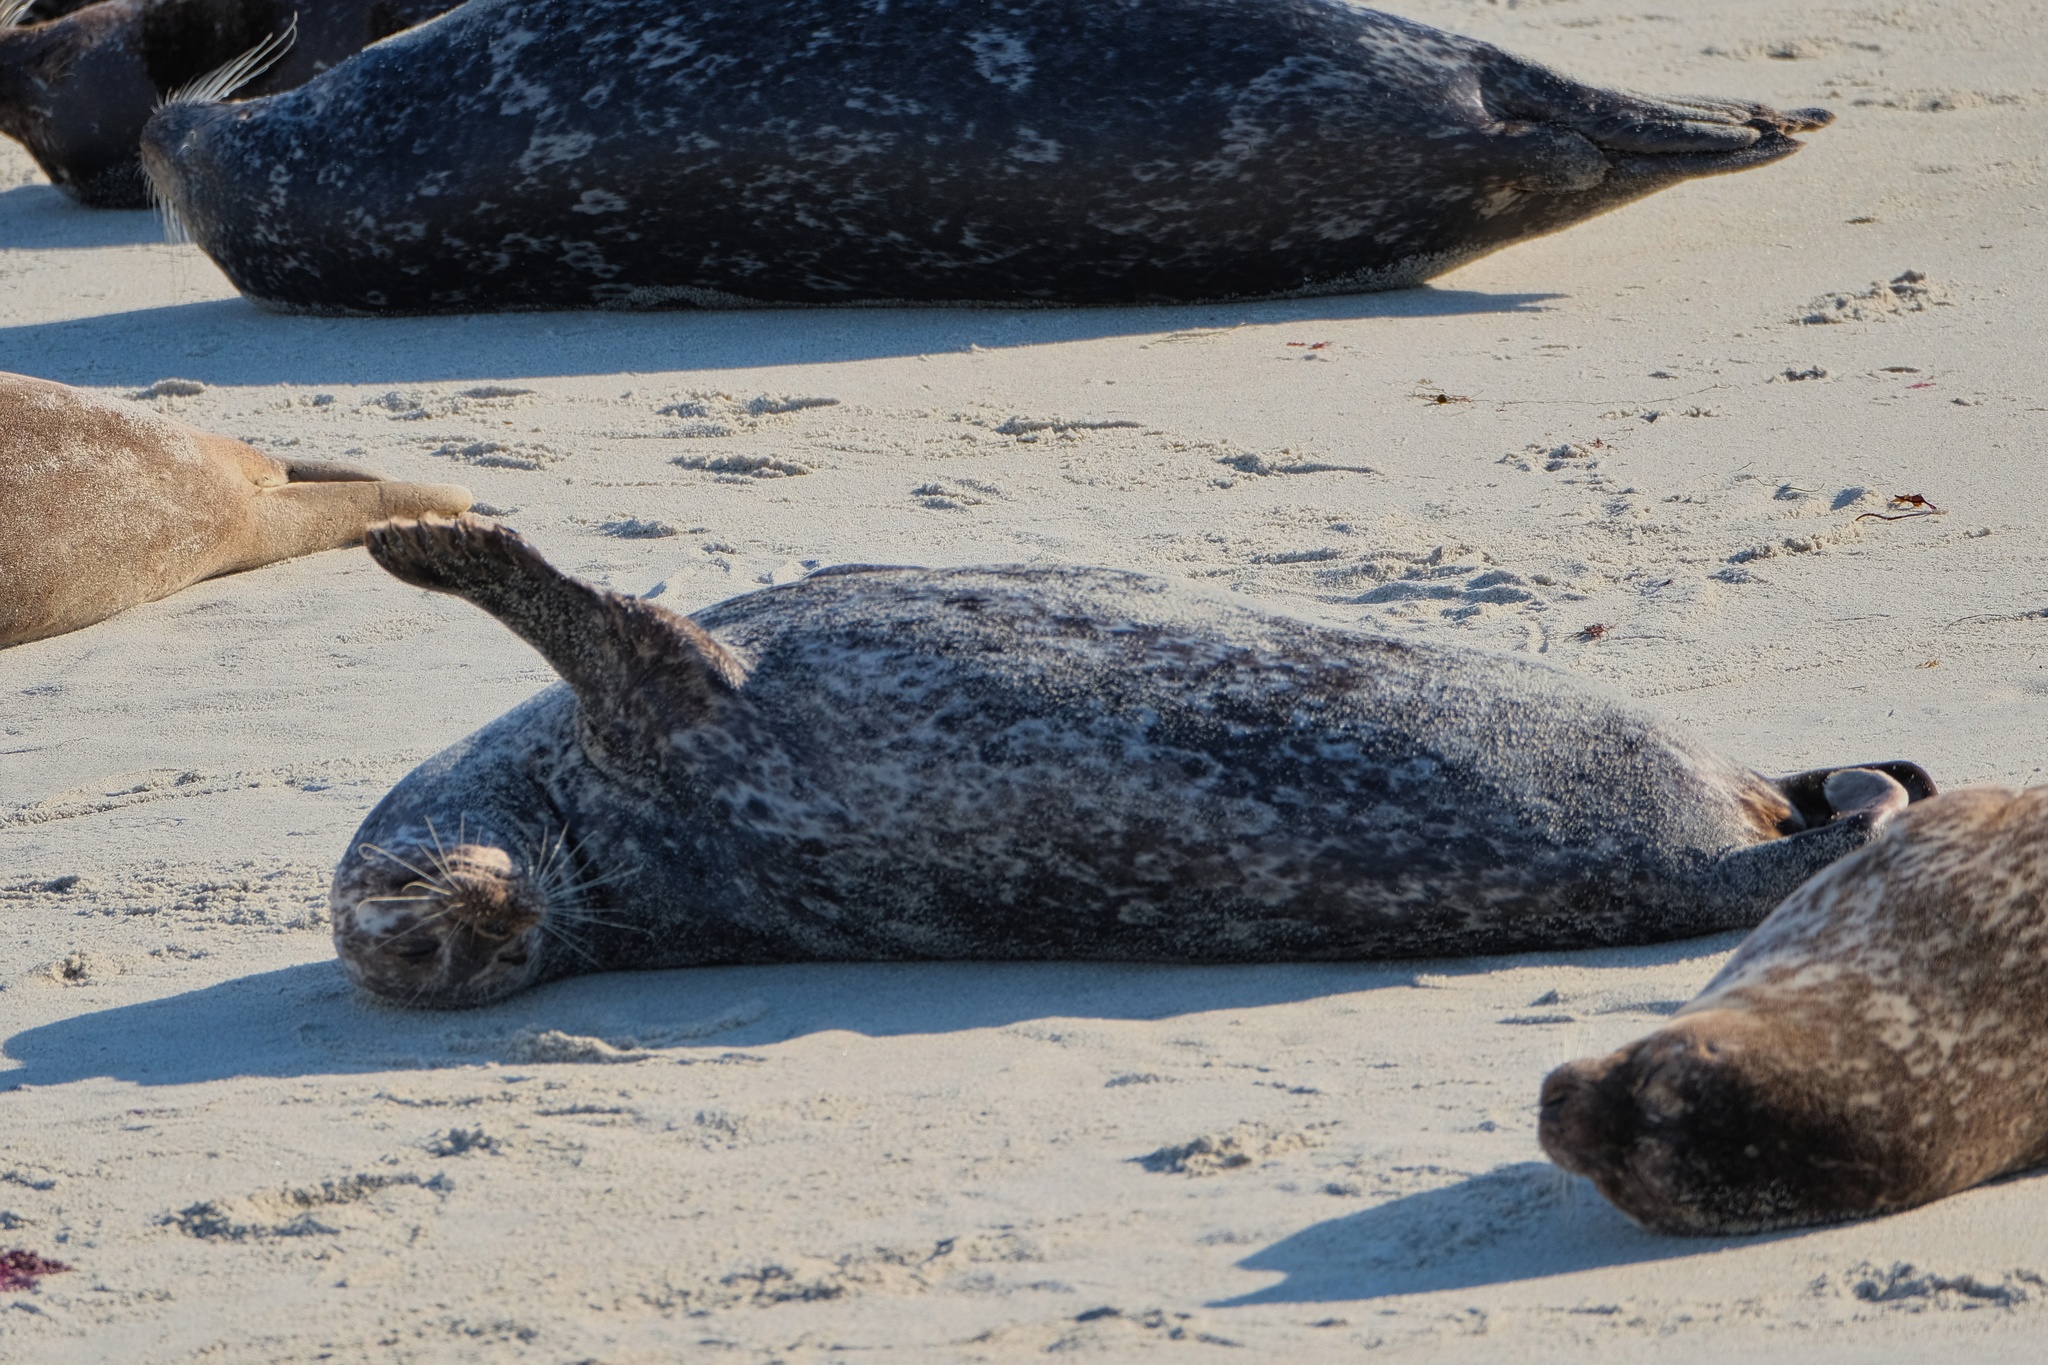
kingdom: Animalia
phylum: Chordata
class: Mammalia
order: Carnivora
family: Phocidae
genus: Phoca
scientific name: Phoca vitulina
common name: Harbor seal
